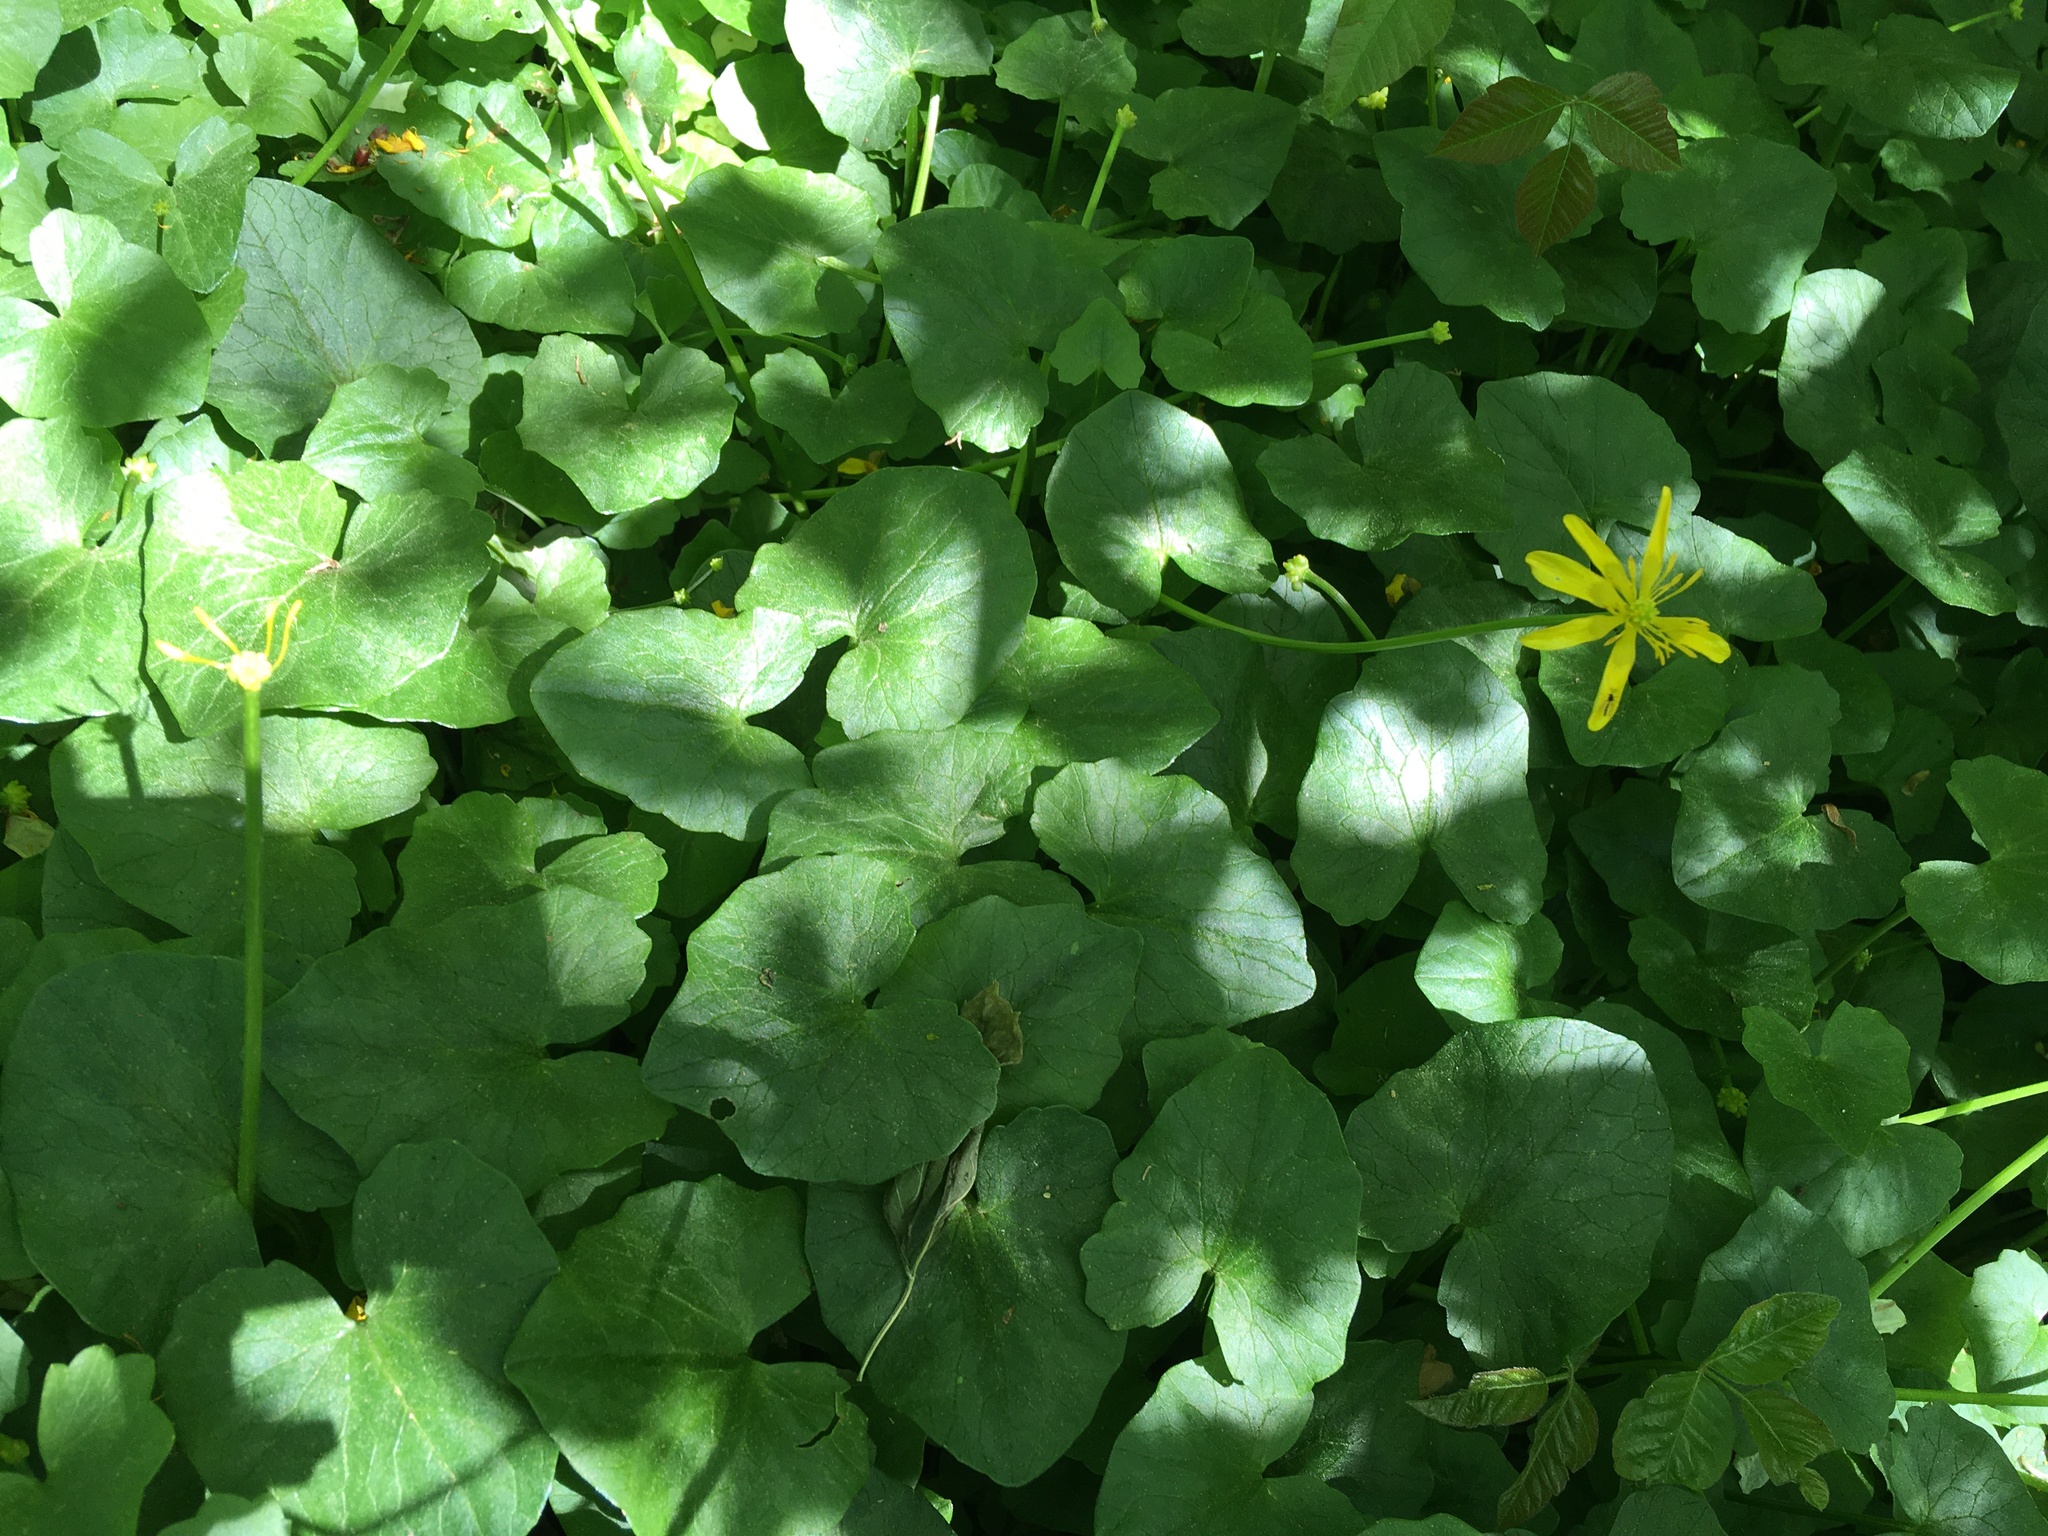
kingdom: Plantae
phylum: Tracheophyta
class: Magnoliopsida
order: Ranunculales
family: Ranunculaceae
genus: Ficaria
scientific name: Ficaria verna
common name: Lesser celandine
